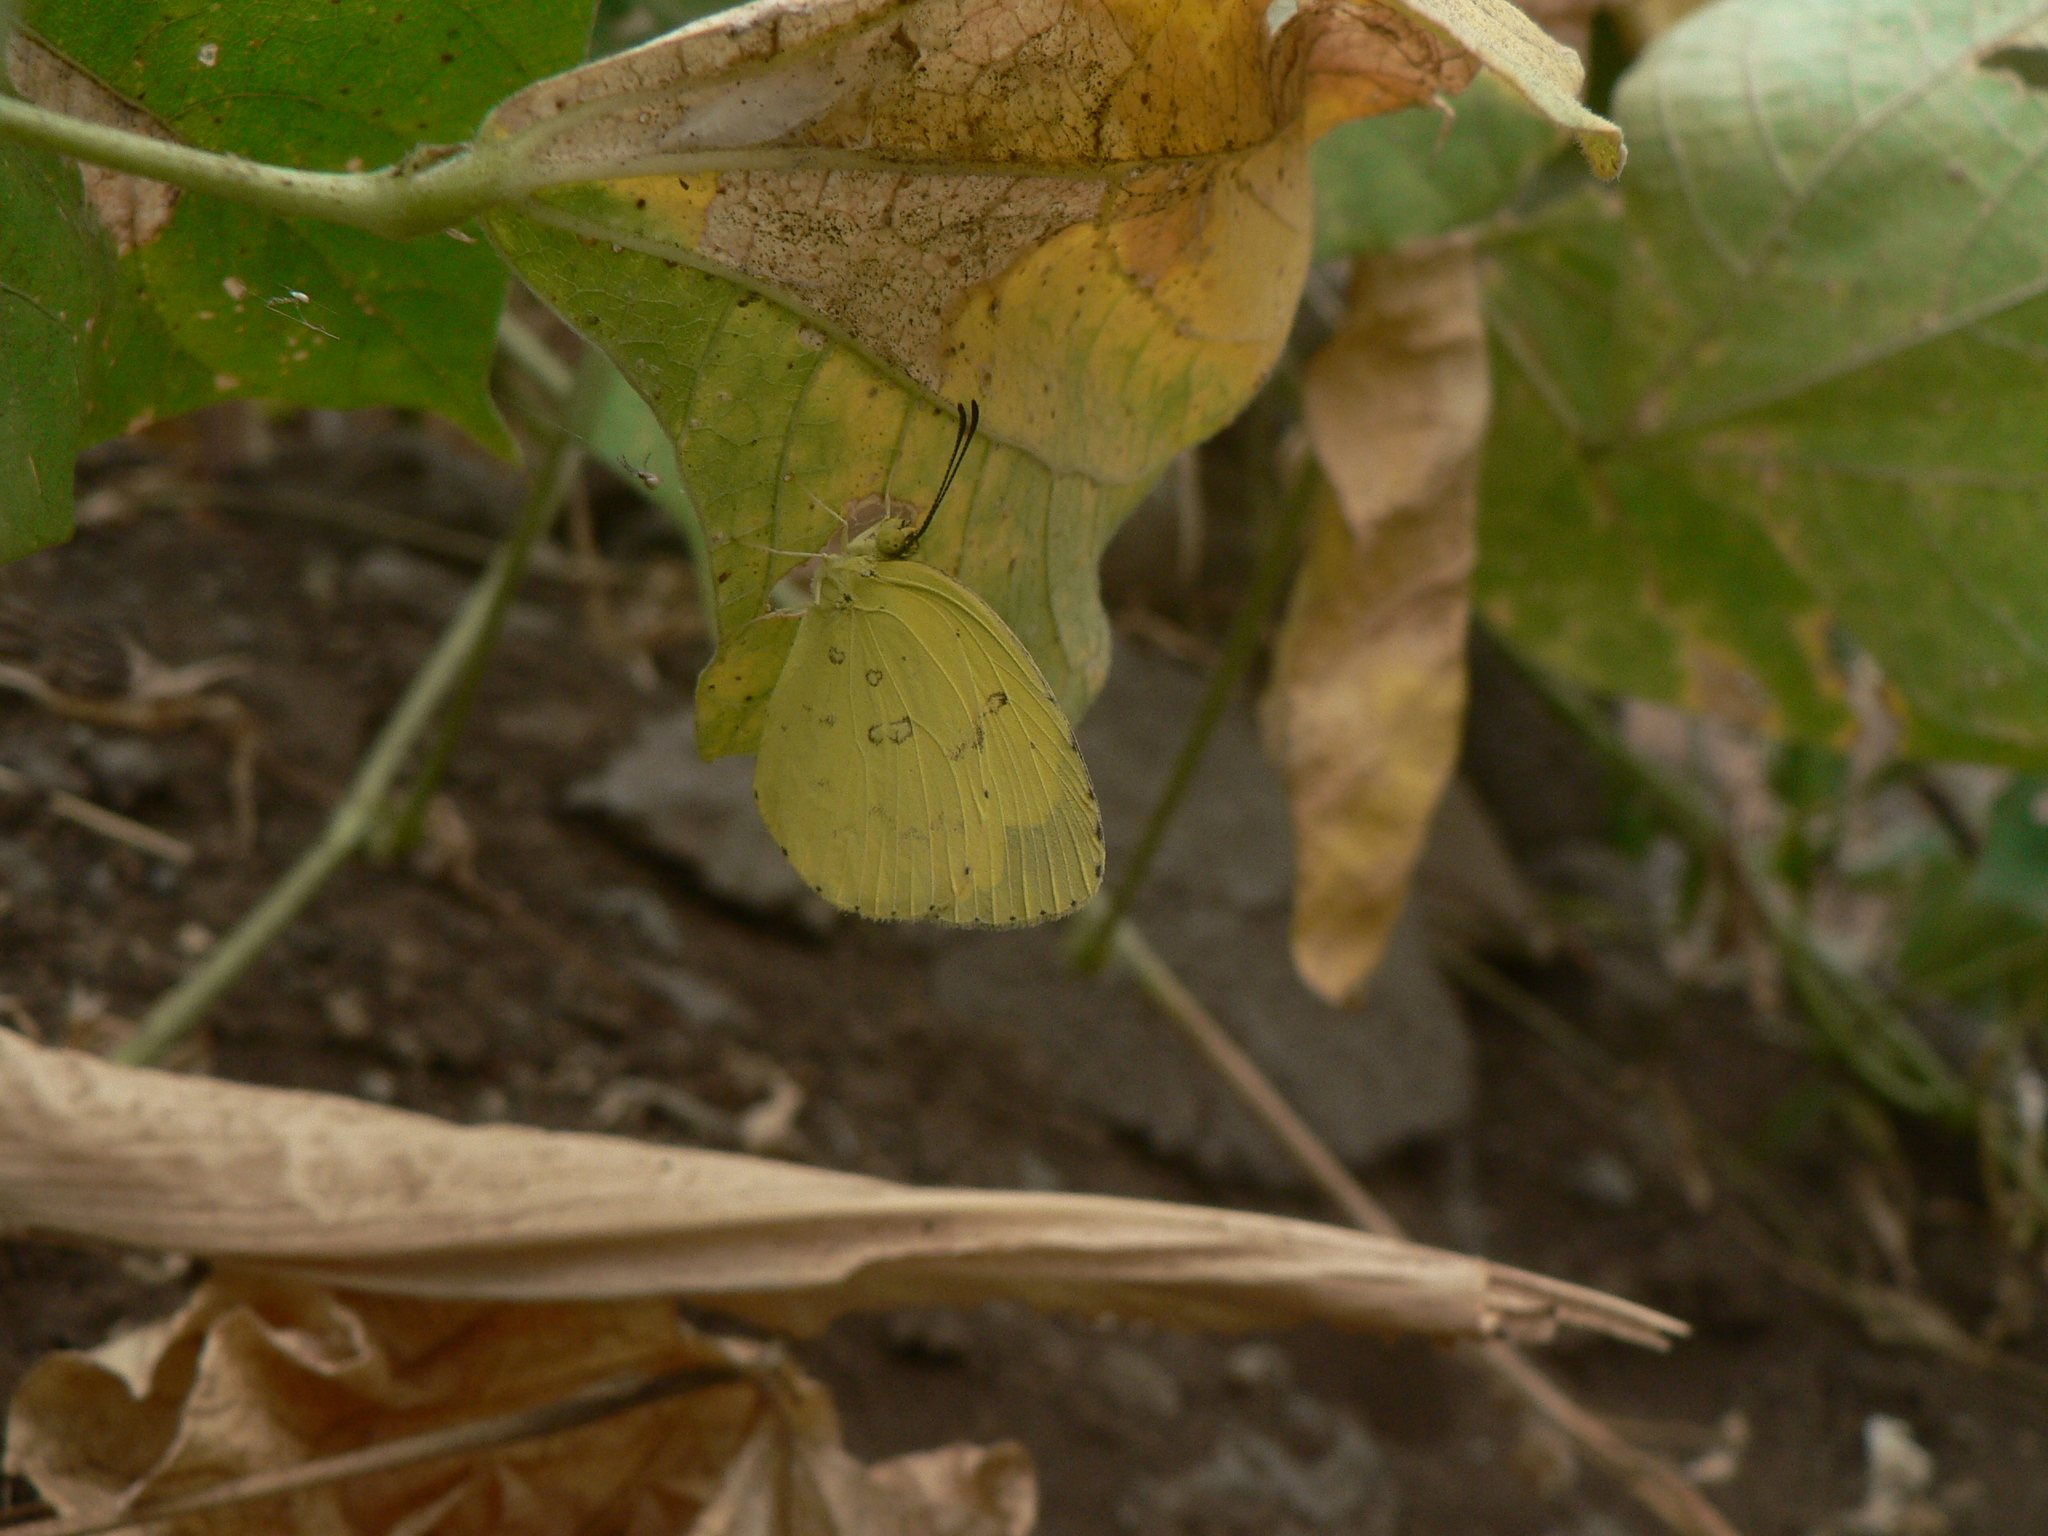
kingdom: Animalia
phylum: Arthropoda
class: Insecta
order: Lepidoptera
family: Pieridae
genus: Eurema
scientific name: Eurema hecabe
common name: Pale grass yellow
